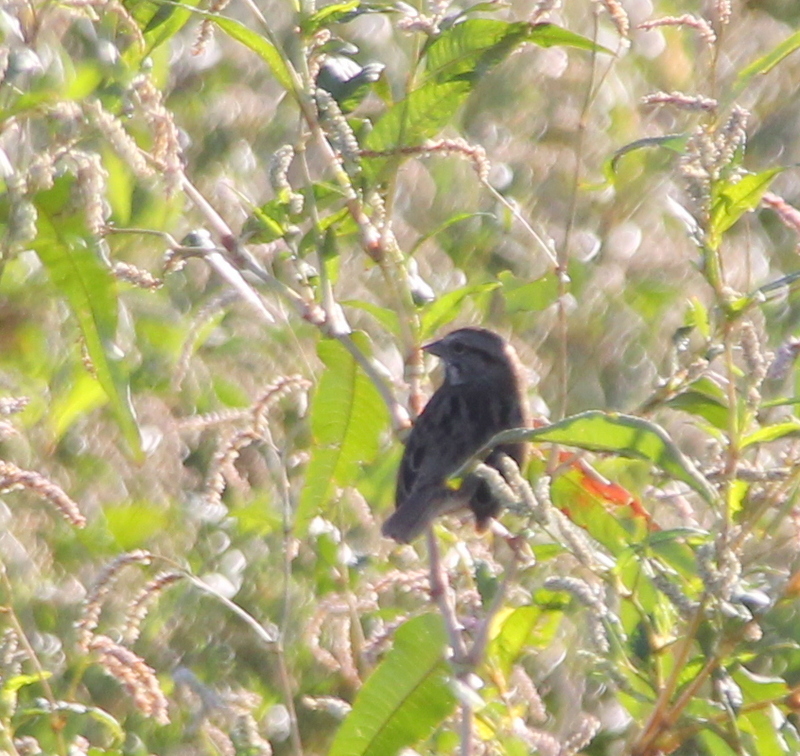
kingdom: Animalia
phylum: Chordata
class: Aves
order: Passeriformes
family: Passerellidae
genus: Melospiza
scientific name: Melospiza melodia
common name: Song sparrow
